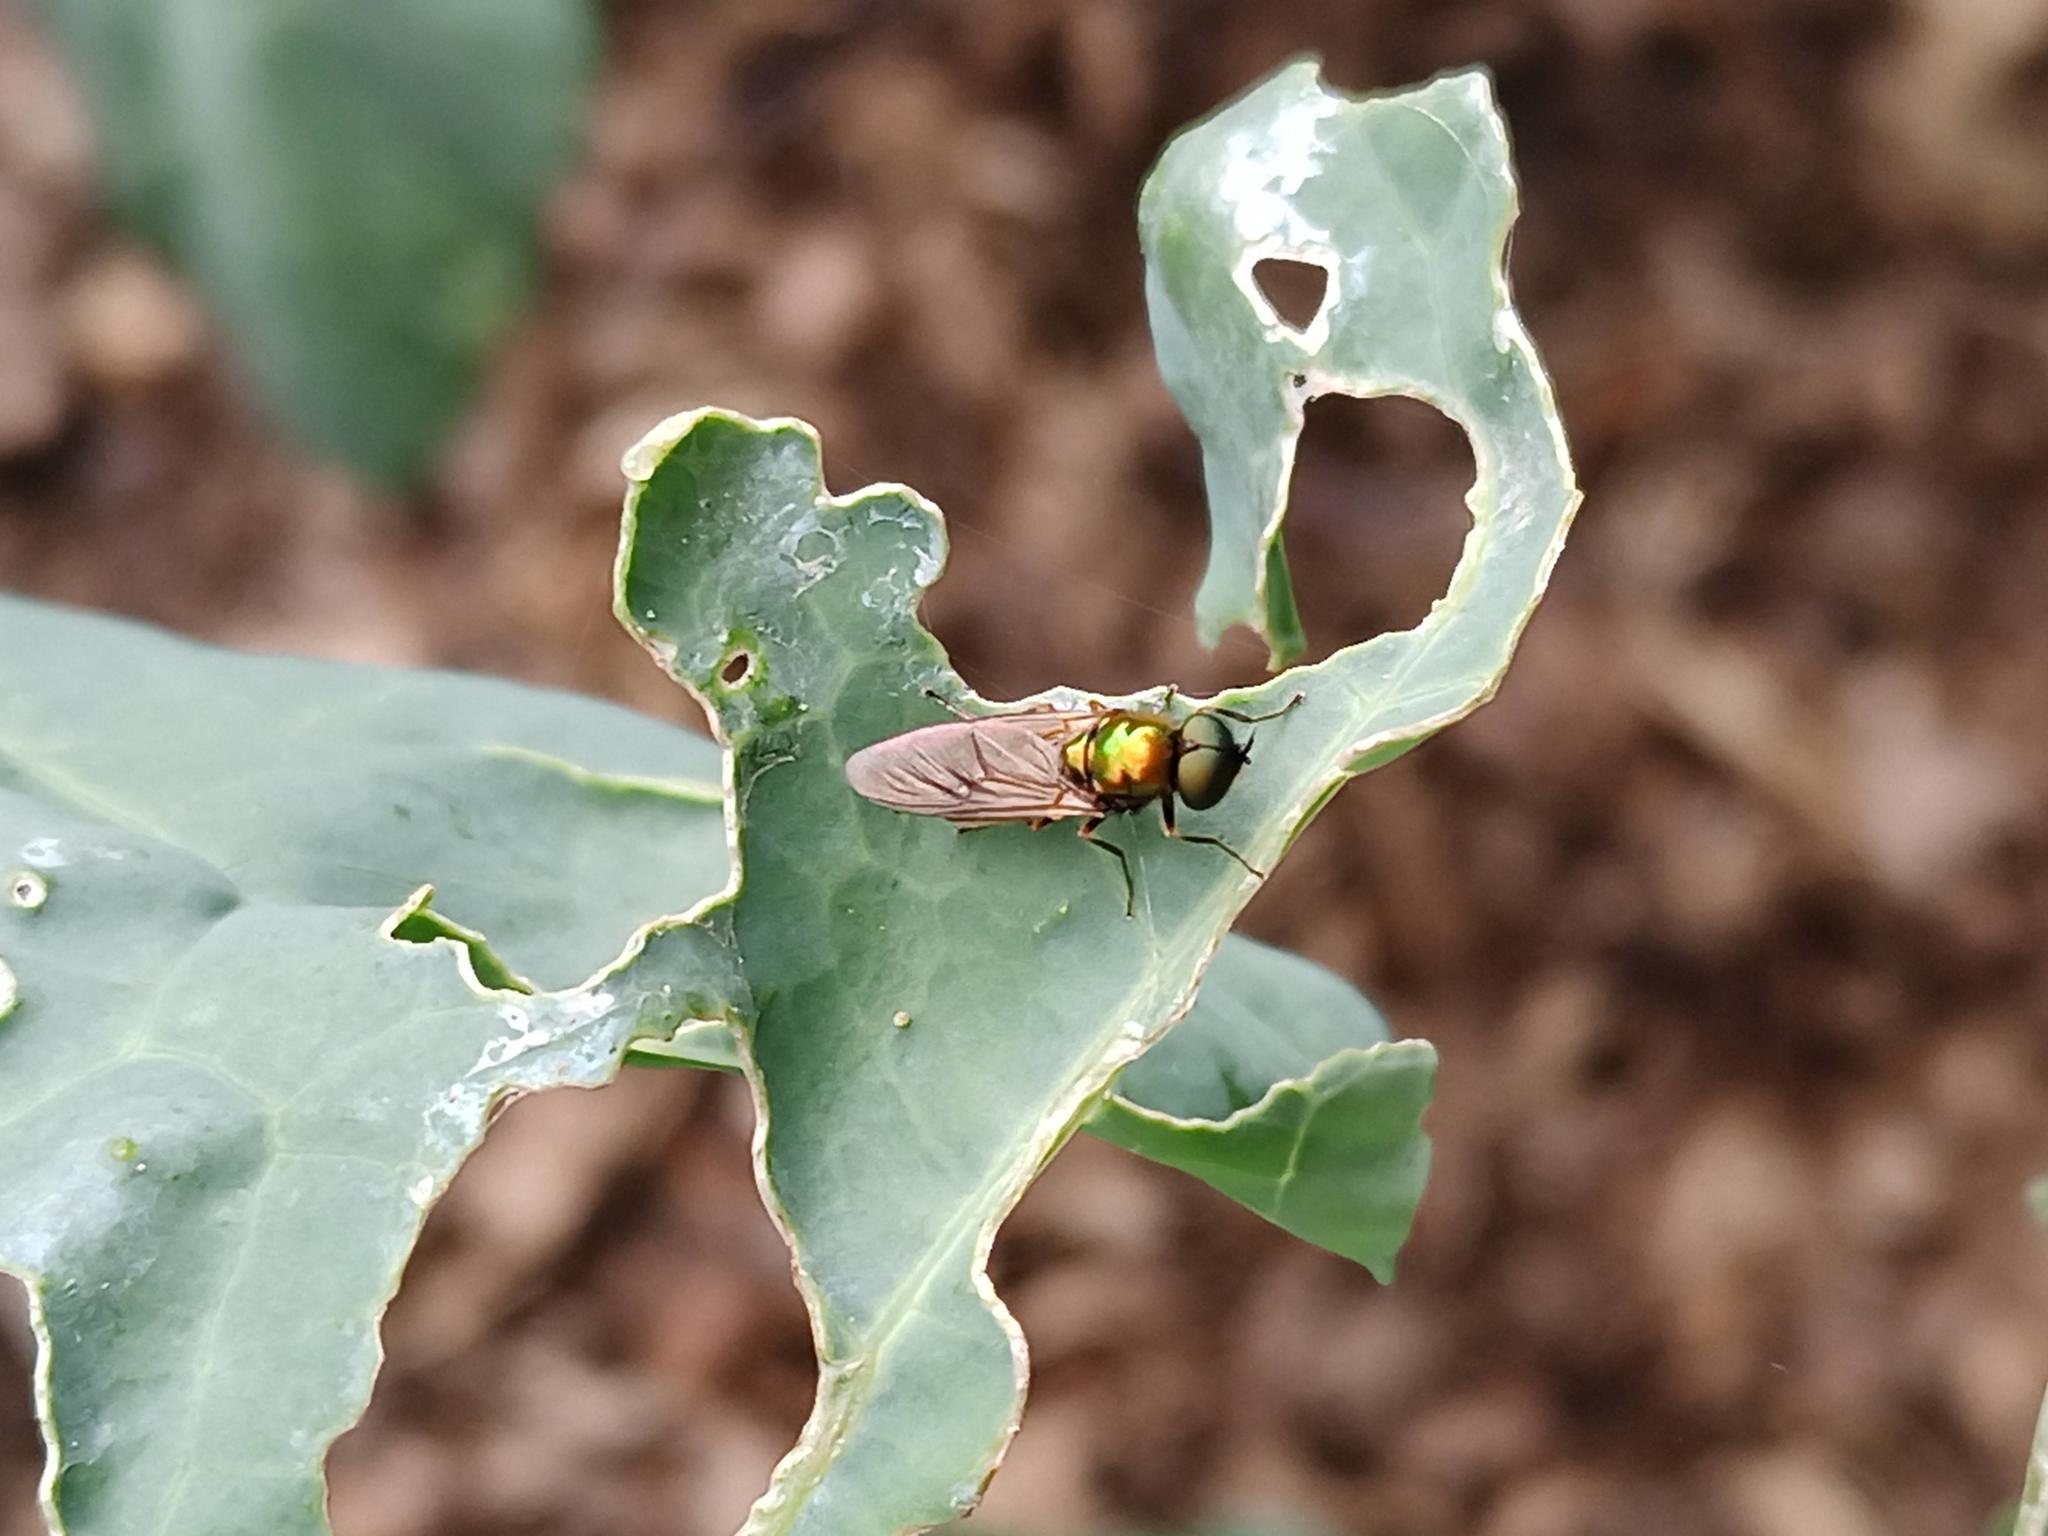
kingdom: Animalia
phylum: Arthropoda
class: Insecta
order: Diptera
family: Stratiomyidae
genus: Chloromyia
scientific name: Chloromyia formosa
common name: Soldier fly
